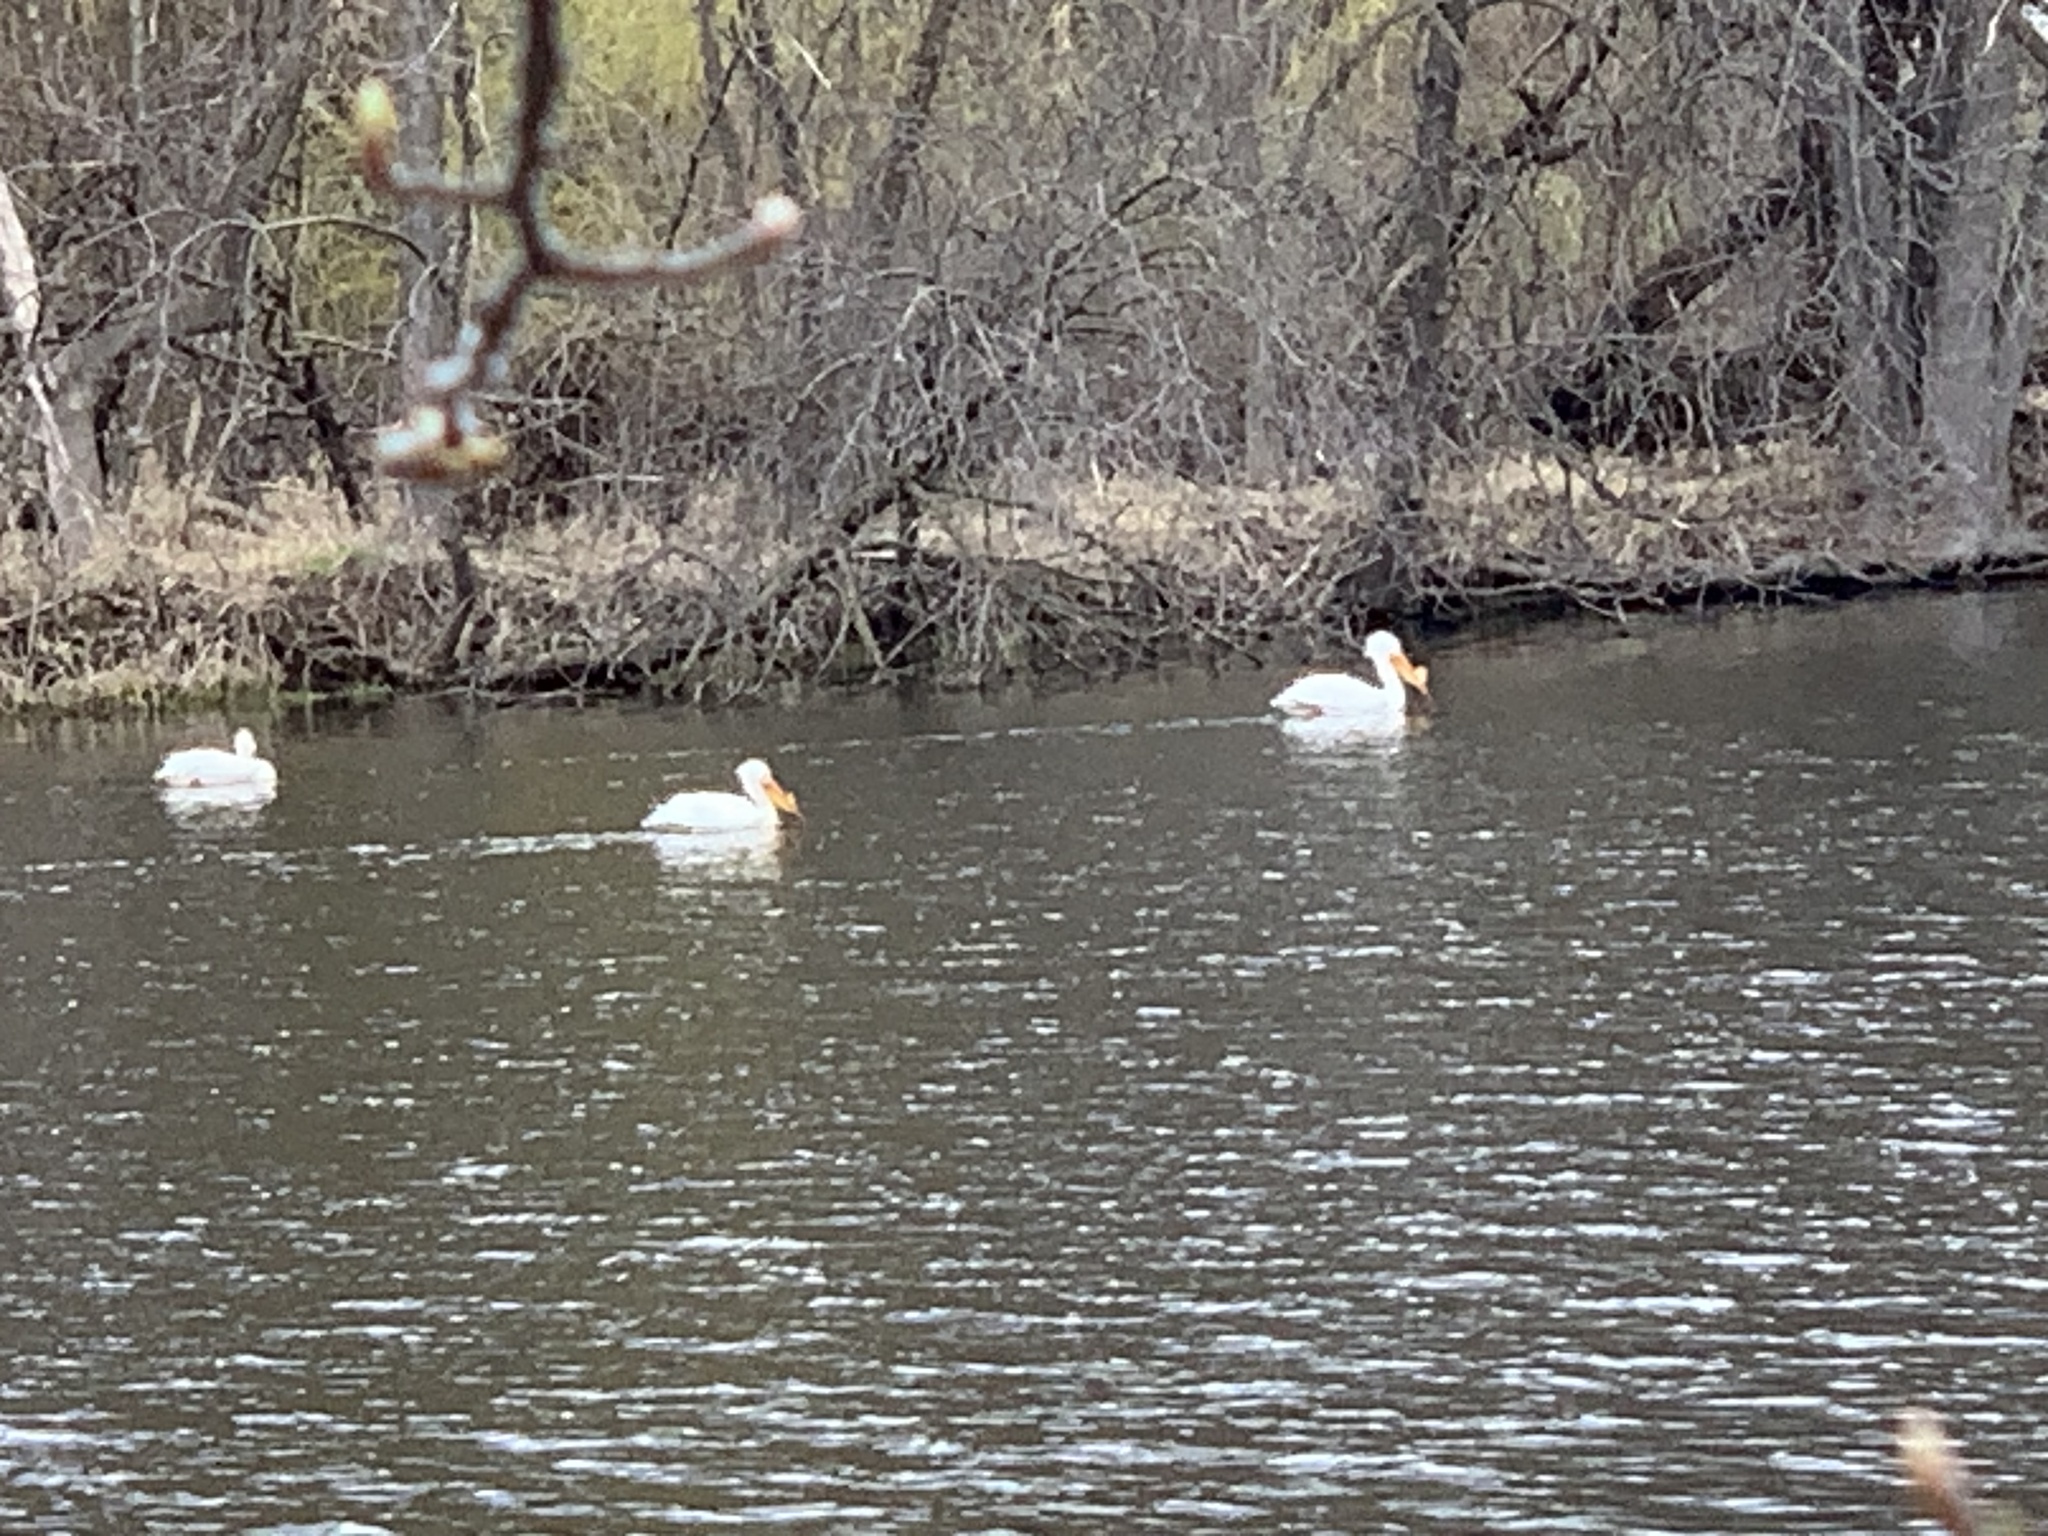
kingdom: Animalia
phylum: Chordata
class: Aves
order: Pelecaniformes
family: Pelecanidae
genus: Pelecanus
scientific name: Pelecanus erythrorhynchos
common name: American white pelican
